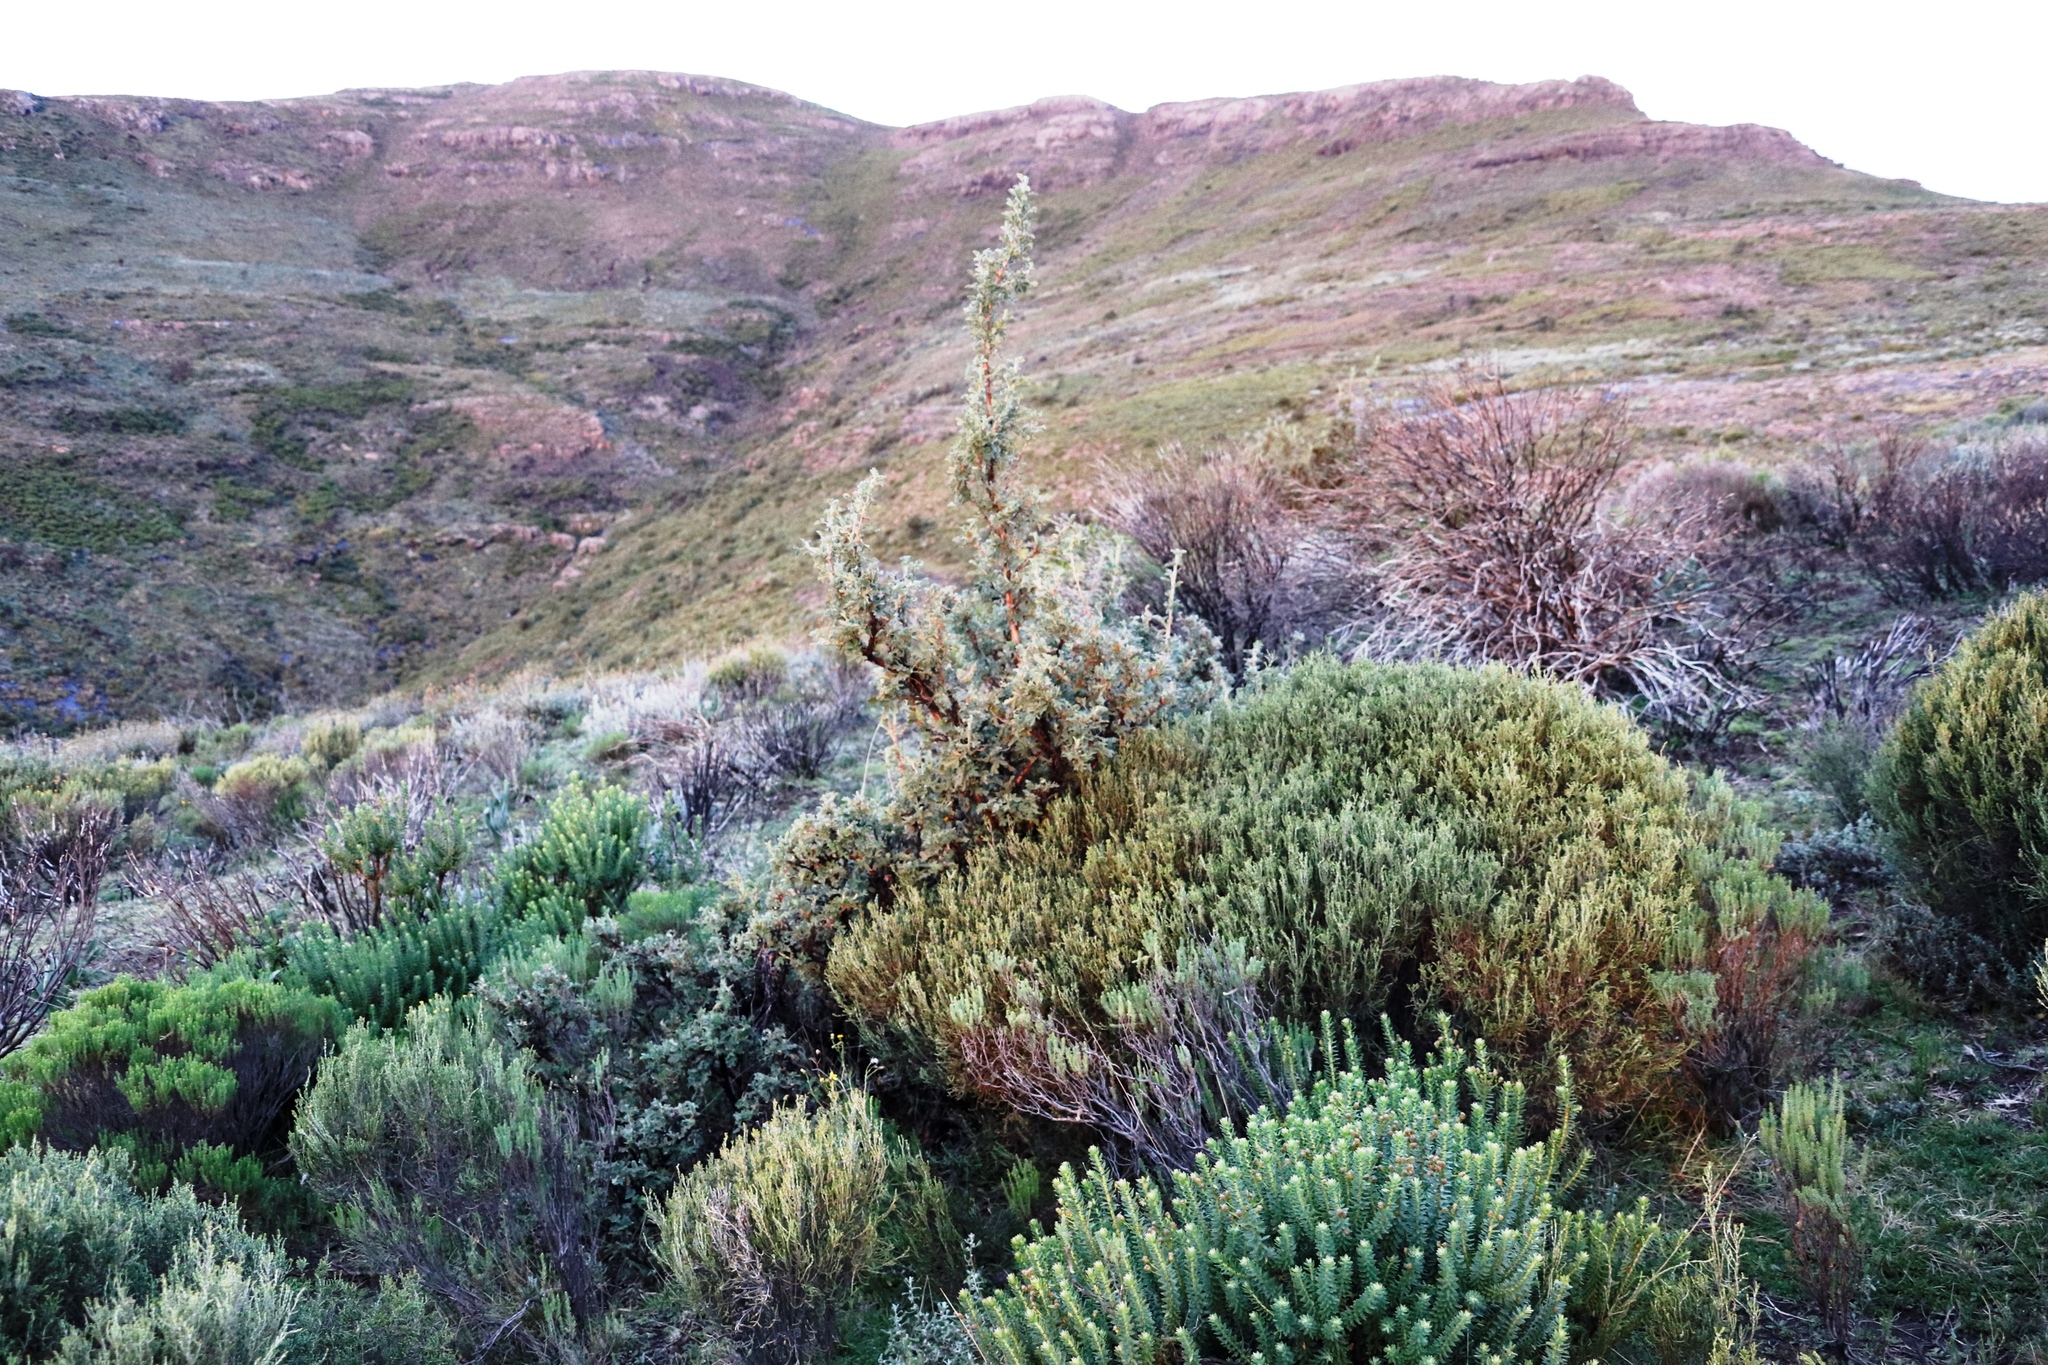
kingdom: Plantae
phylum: Tracheophyta
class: Magnoliopsida
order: Rosales
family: Rosaceae
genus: Leucosidea
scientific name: Leucosidea sericea
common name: Oldwood
